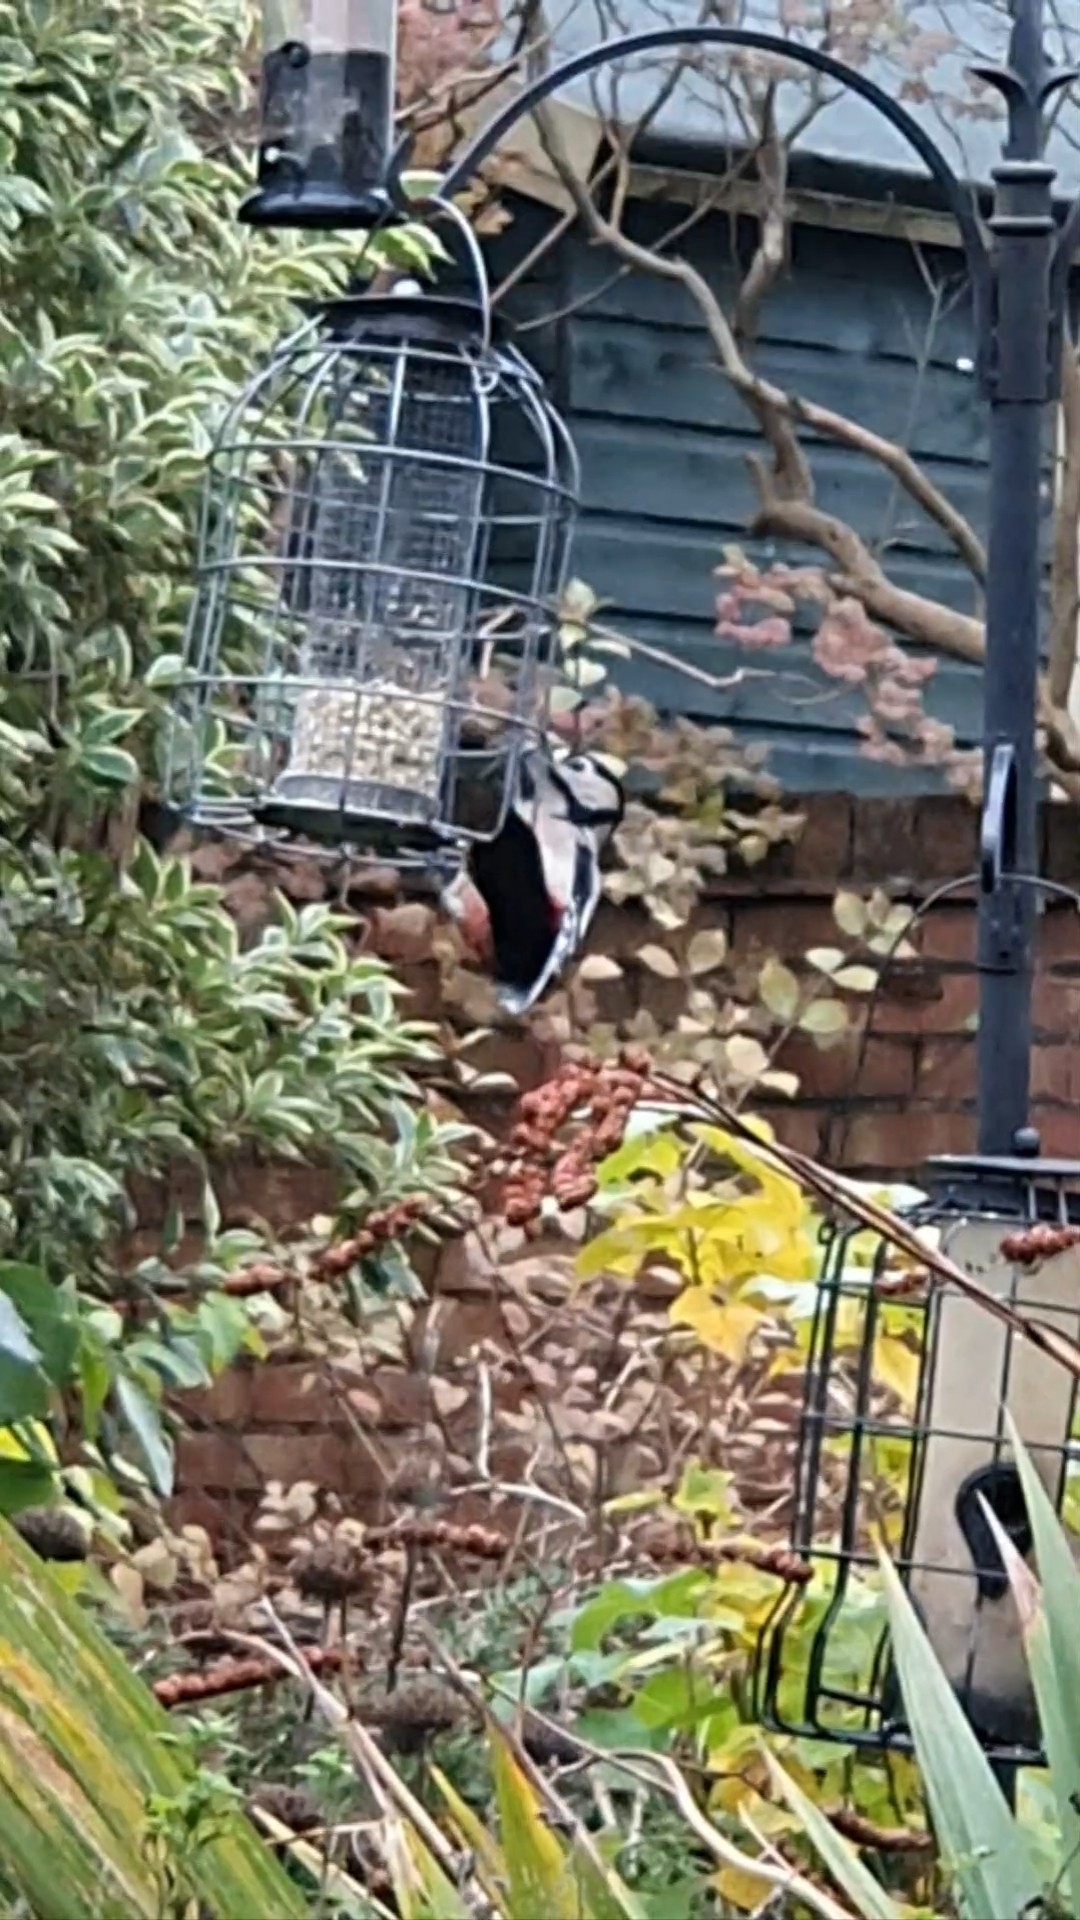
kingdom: Animalia
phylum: Chordata
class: Aves
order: Piciformes
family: Picidae
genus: Dendrocopos
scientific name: Dendrocopos major
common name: Great spotted woodpecker
